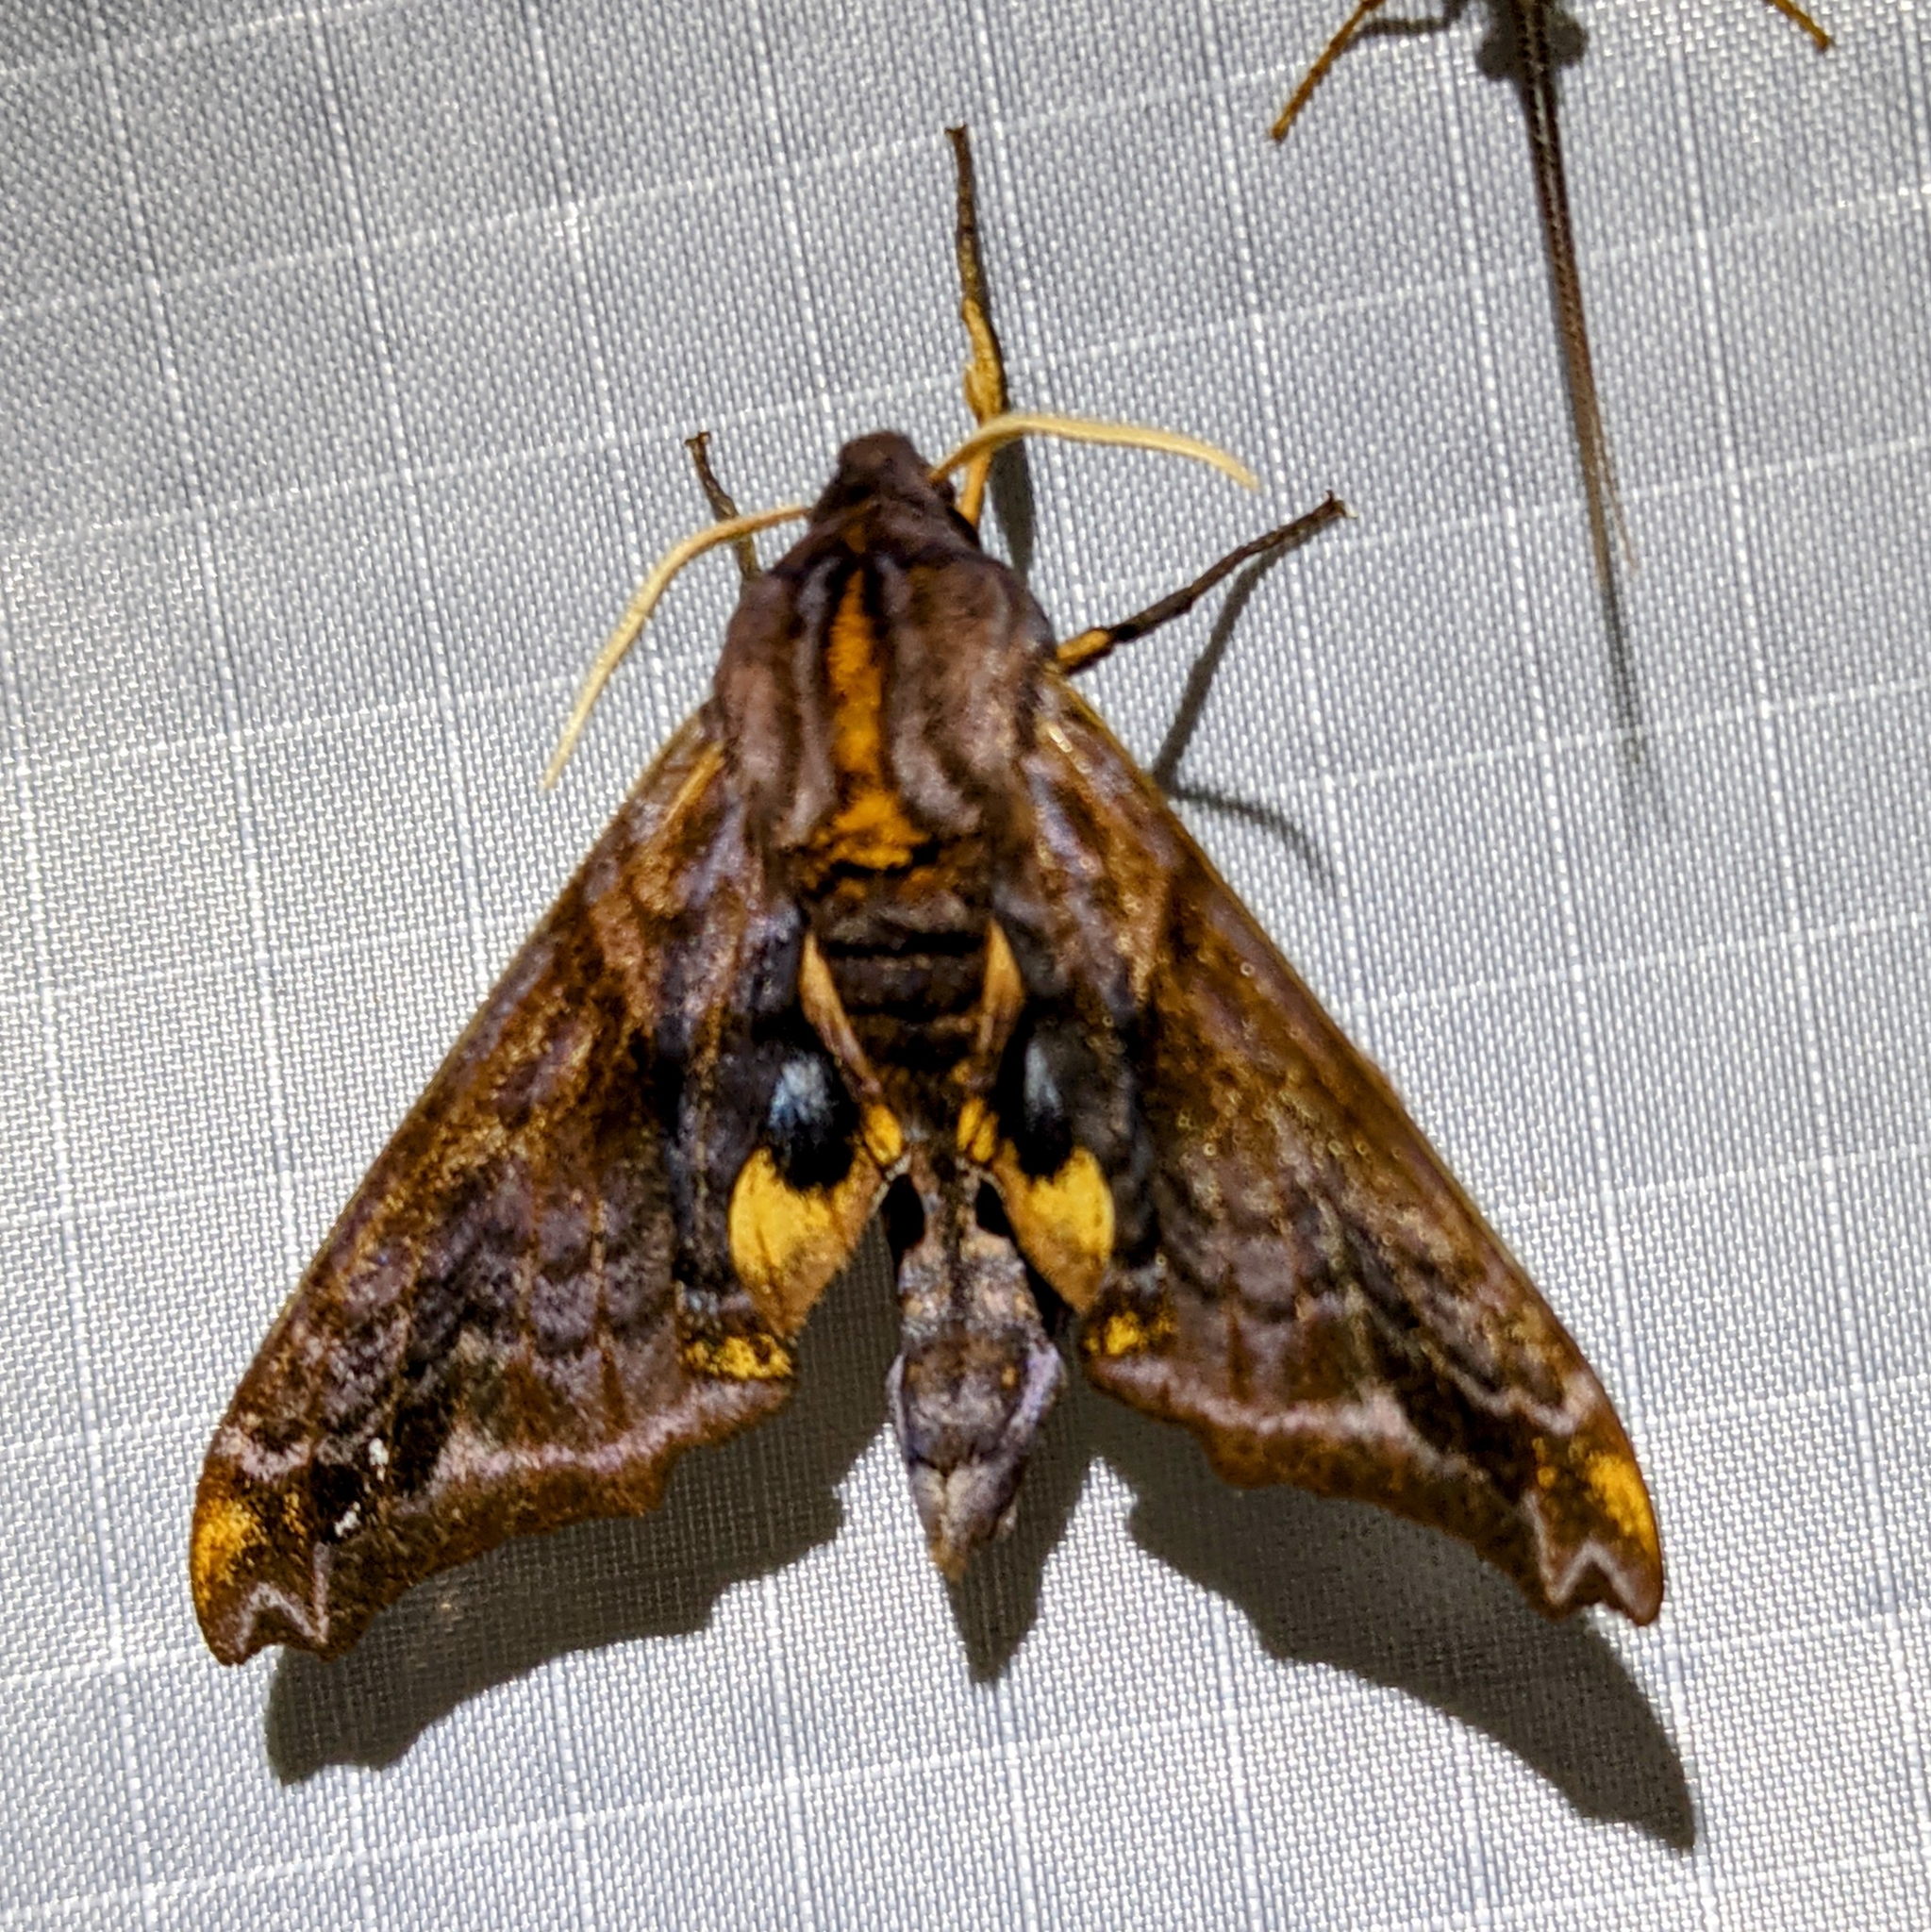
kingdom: Animalia
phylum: Arthropoda
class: Insecta
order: Lepidoptera
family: Sphingidae
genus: Paonias
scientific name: Paonias myops
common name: Small-eyed sphinx
